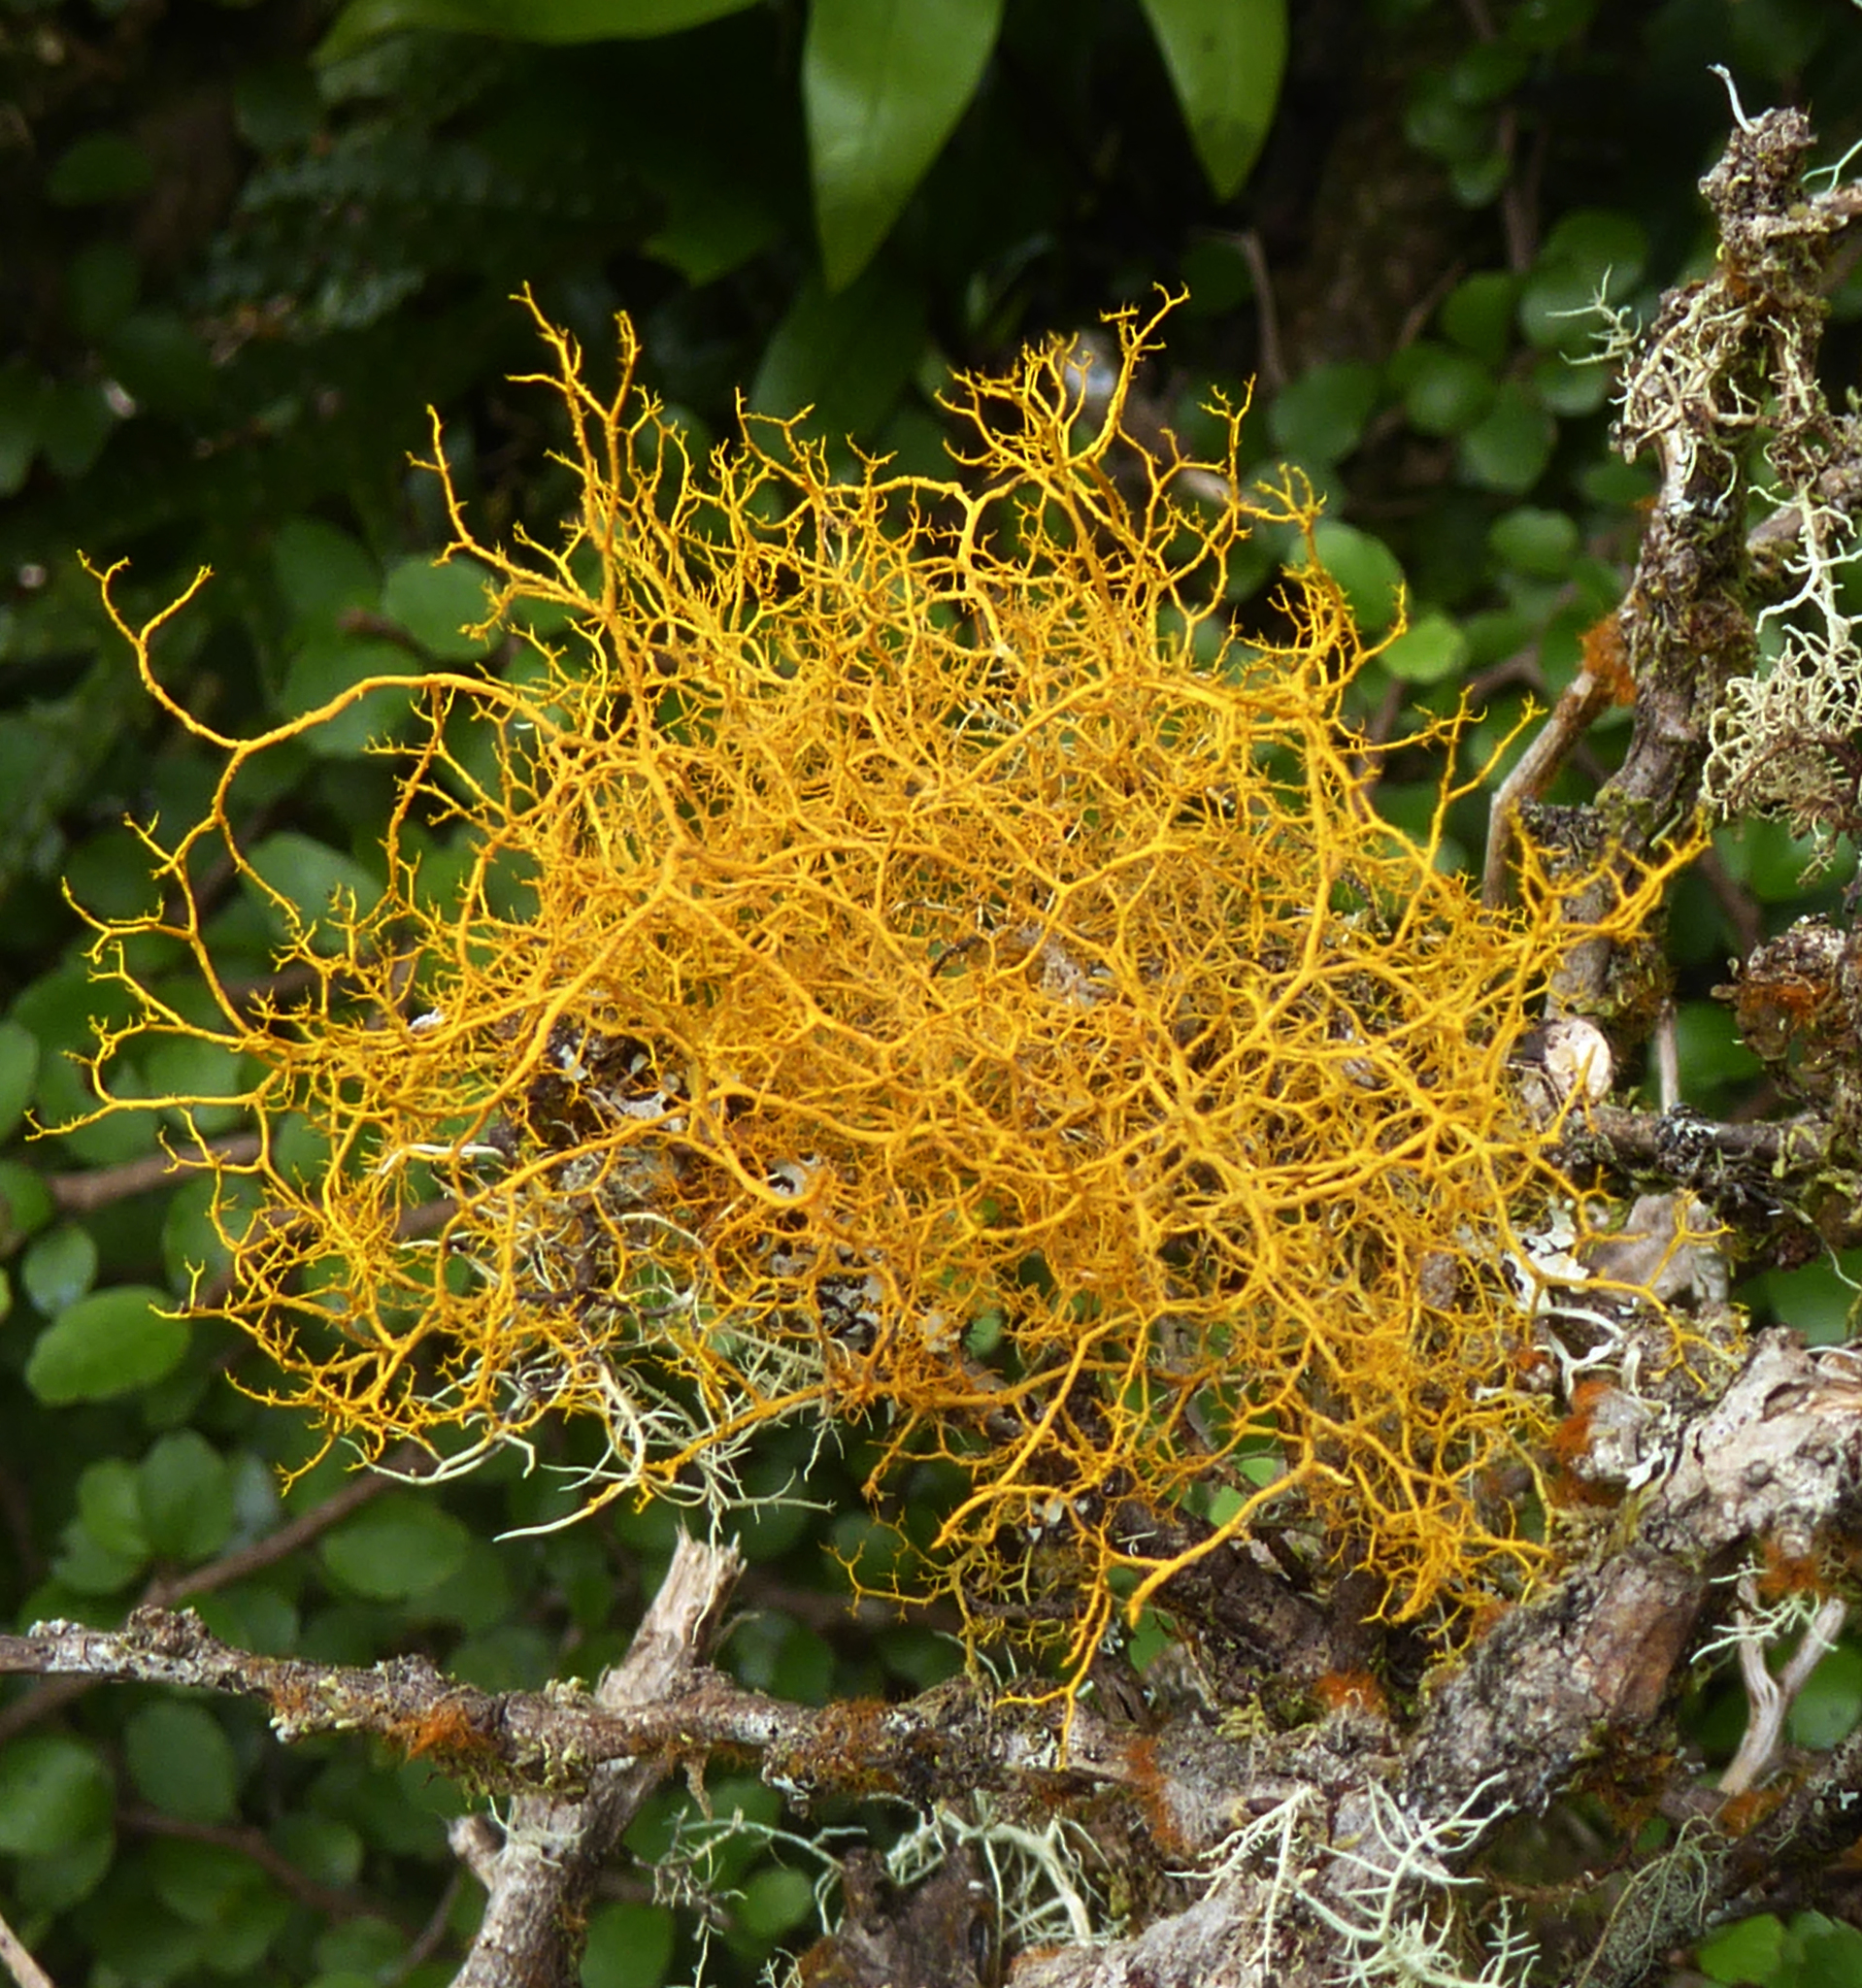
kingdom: Fungi
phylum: Ascomycota
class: Lecanoromycetes
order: Teloschistales
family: Teloschistaceae
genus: Teloschistes
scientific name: Teloschistes flavicans
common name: Golden hair-lichen
